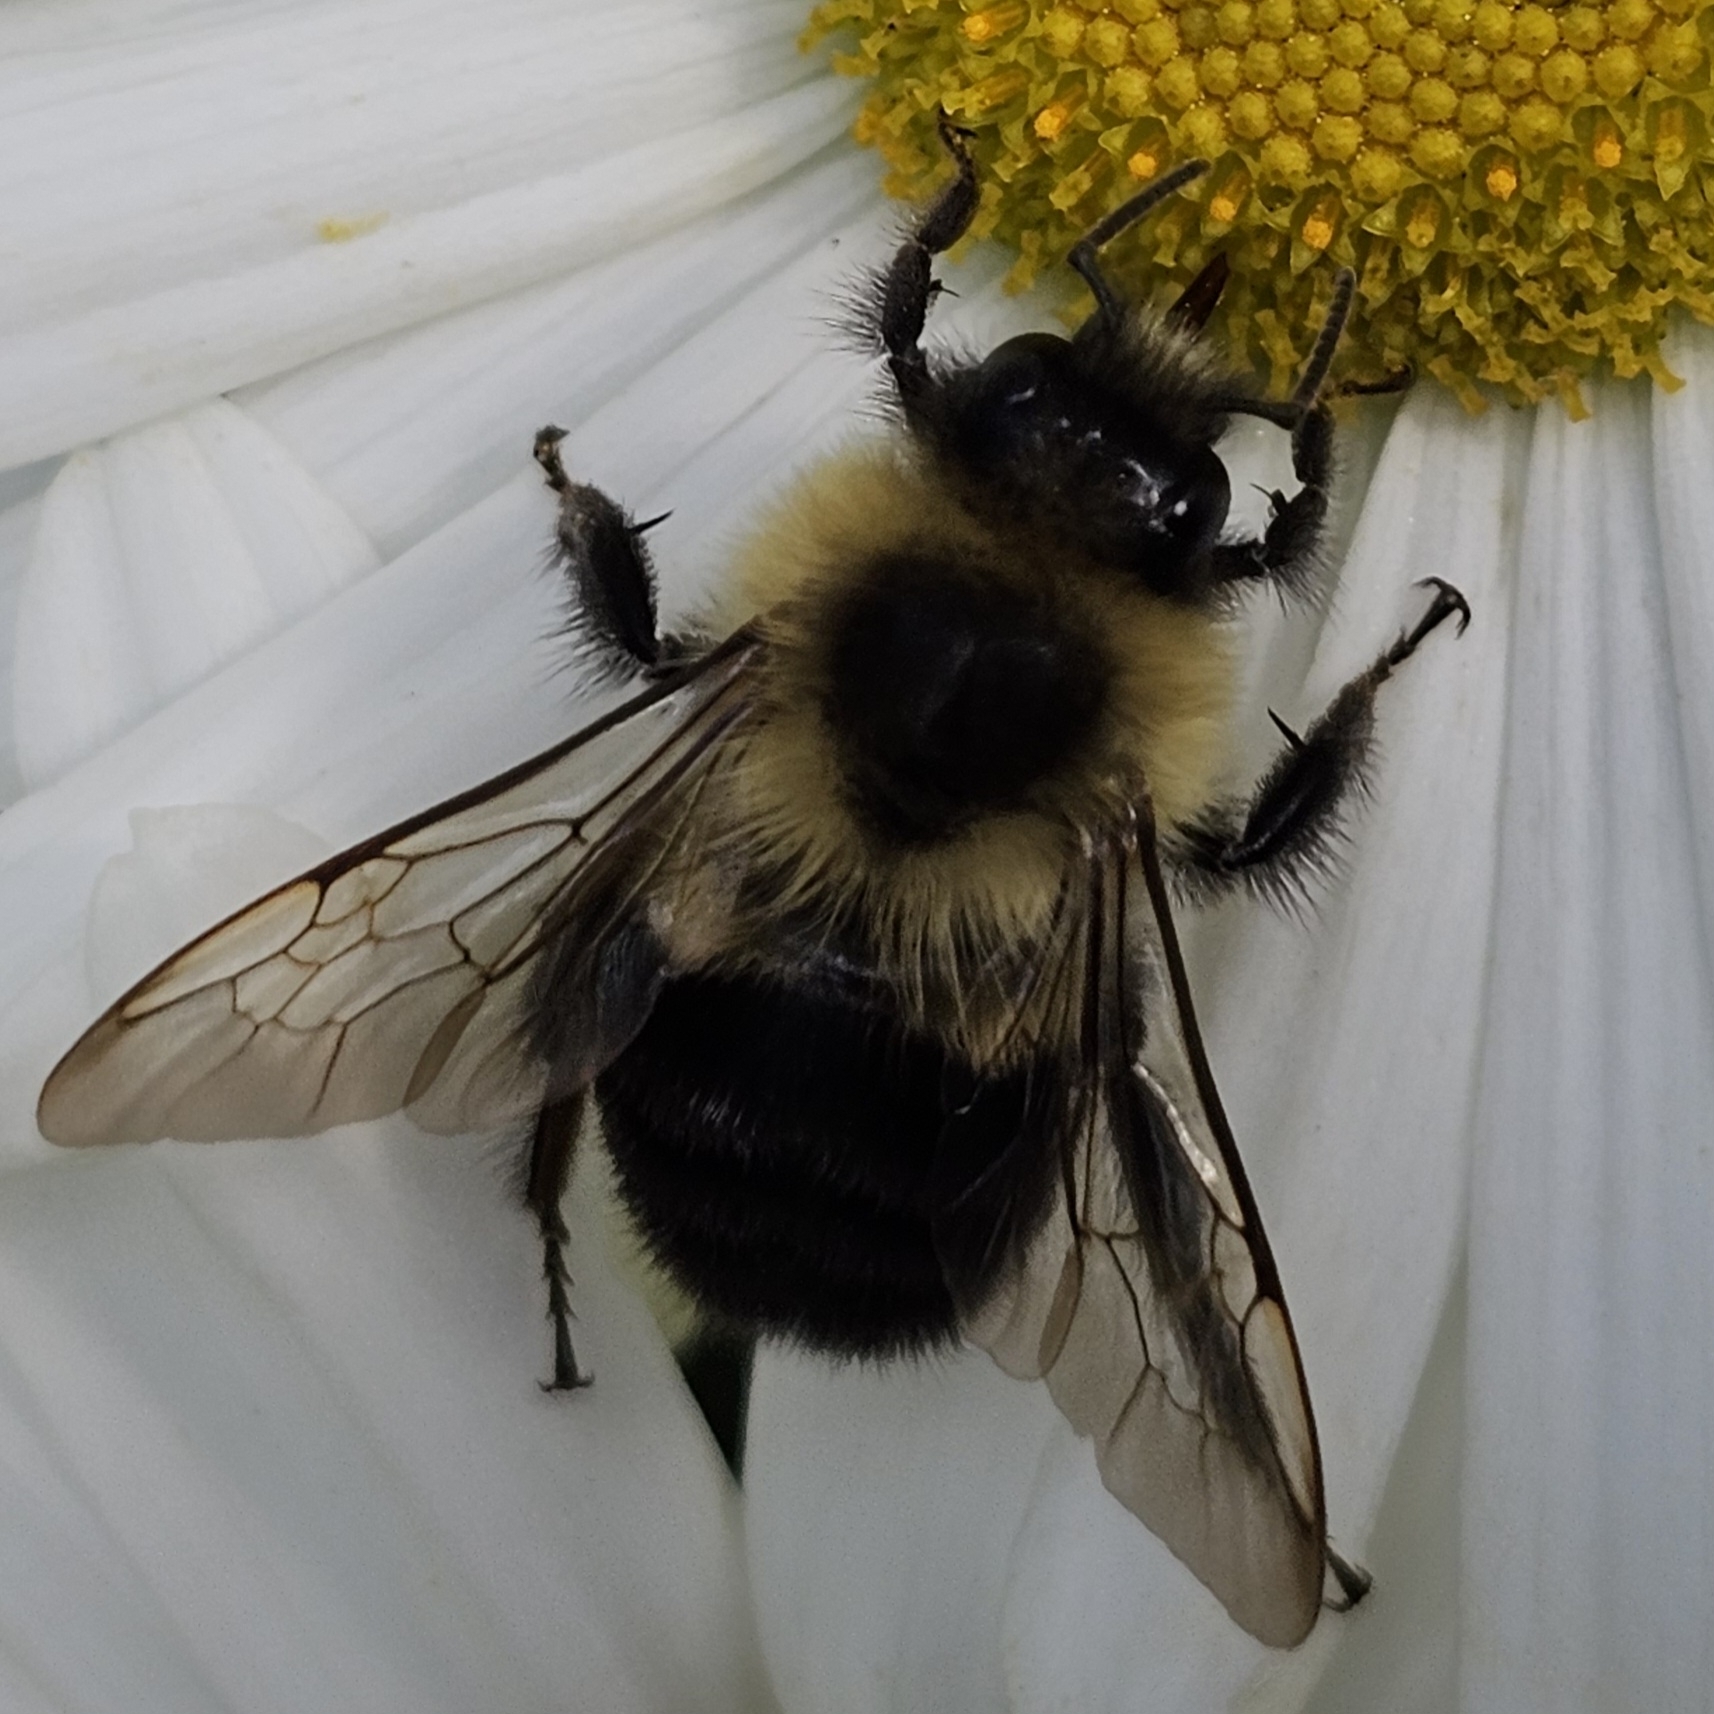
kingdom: Animalia
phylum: Arthropoda
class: Insecta
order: Hymenoptera
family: Apidae
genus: Bombus
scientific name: Bombus impatiens
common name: Common eastern bumble bee
